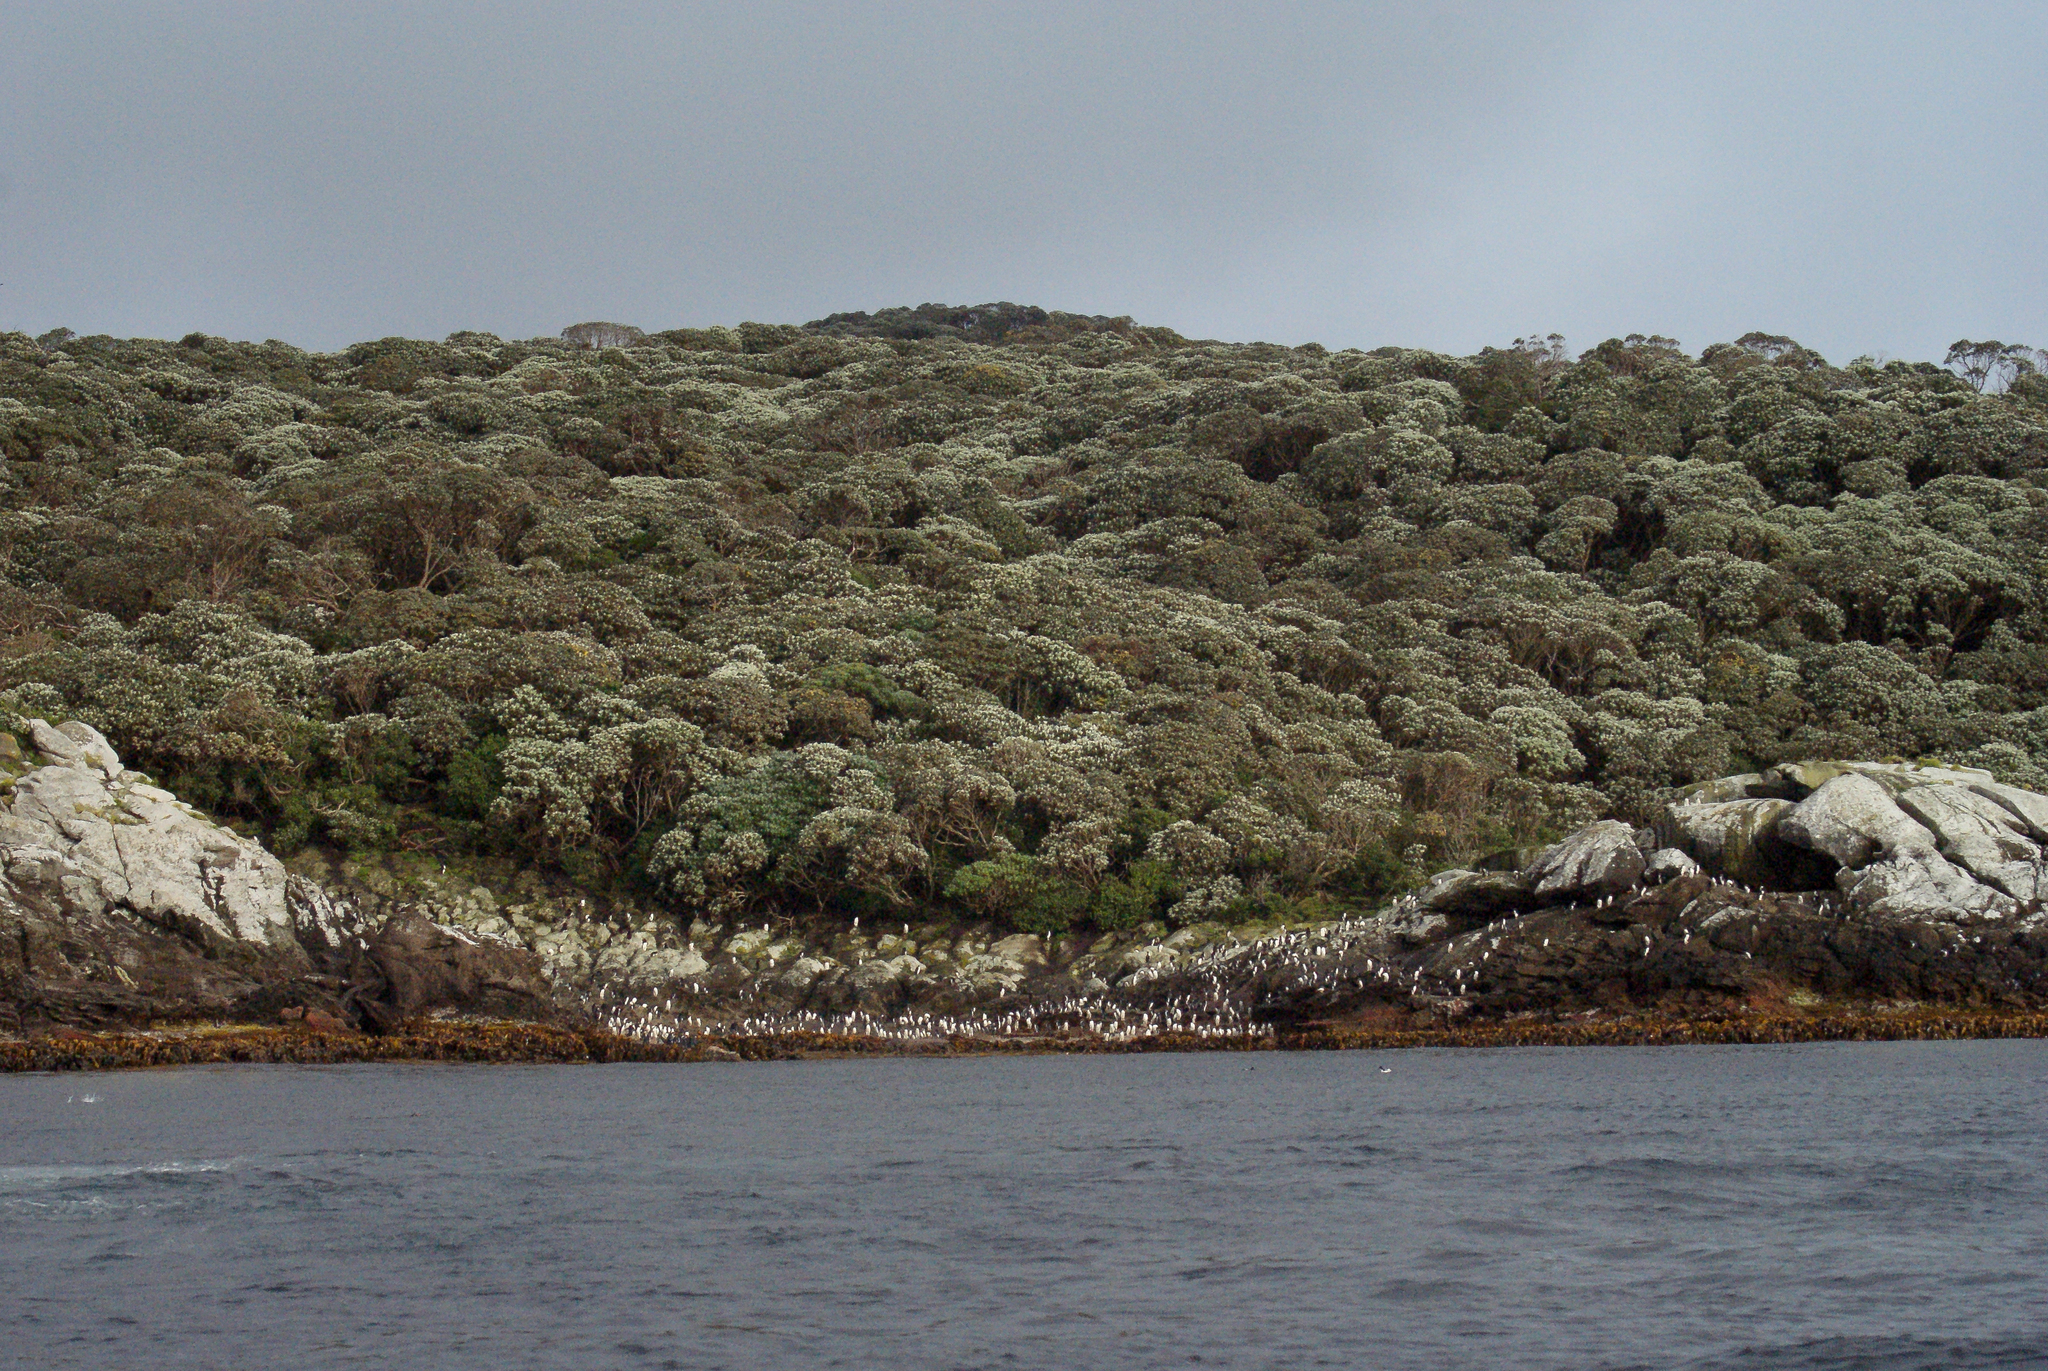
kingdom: Plantae
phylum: Tracheophyta
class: Magnoliopsida
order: Asterales
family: Asteraceae
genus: Macrolearia
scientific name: Macrolearia lyallii
